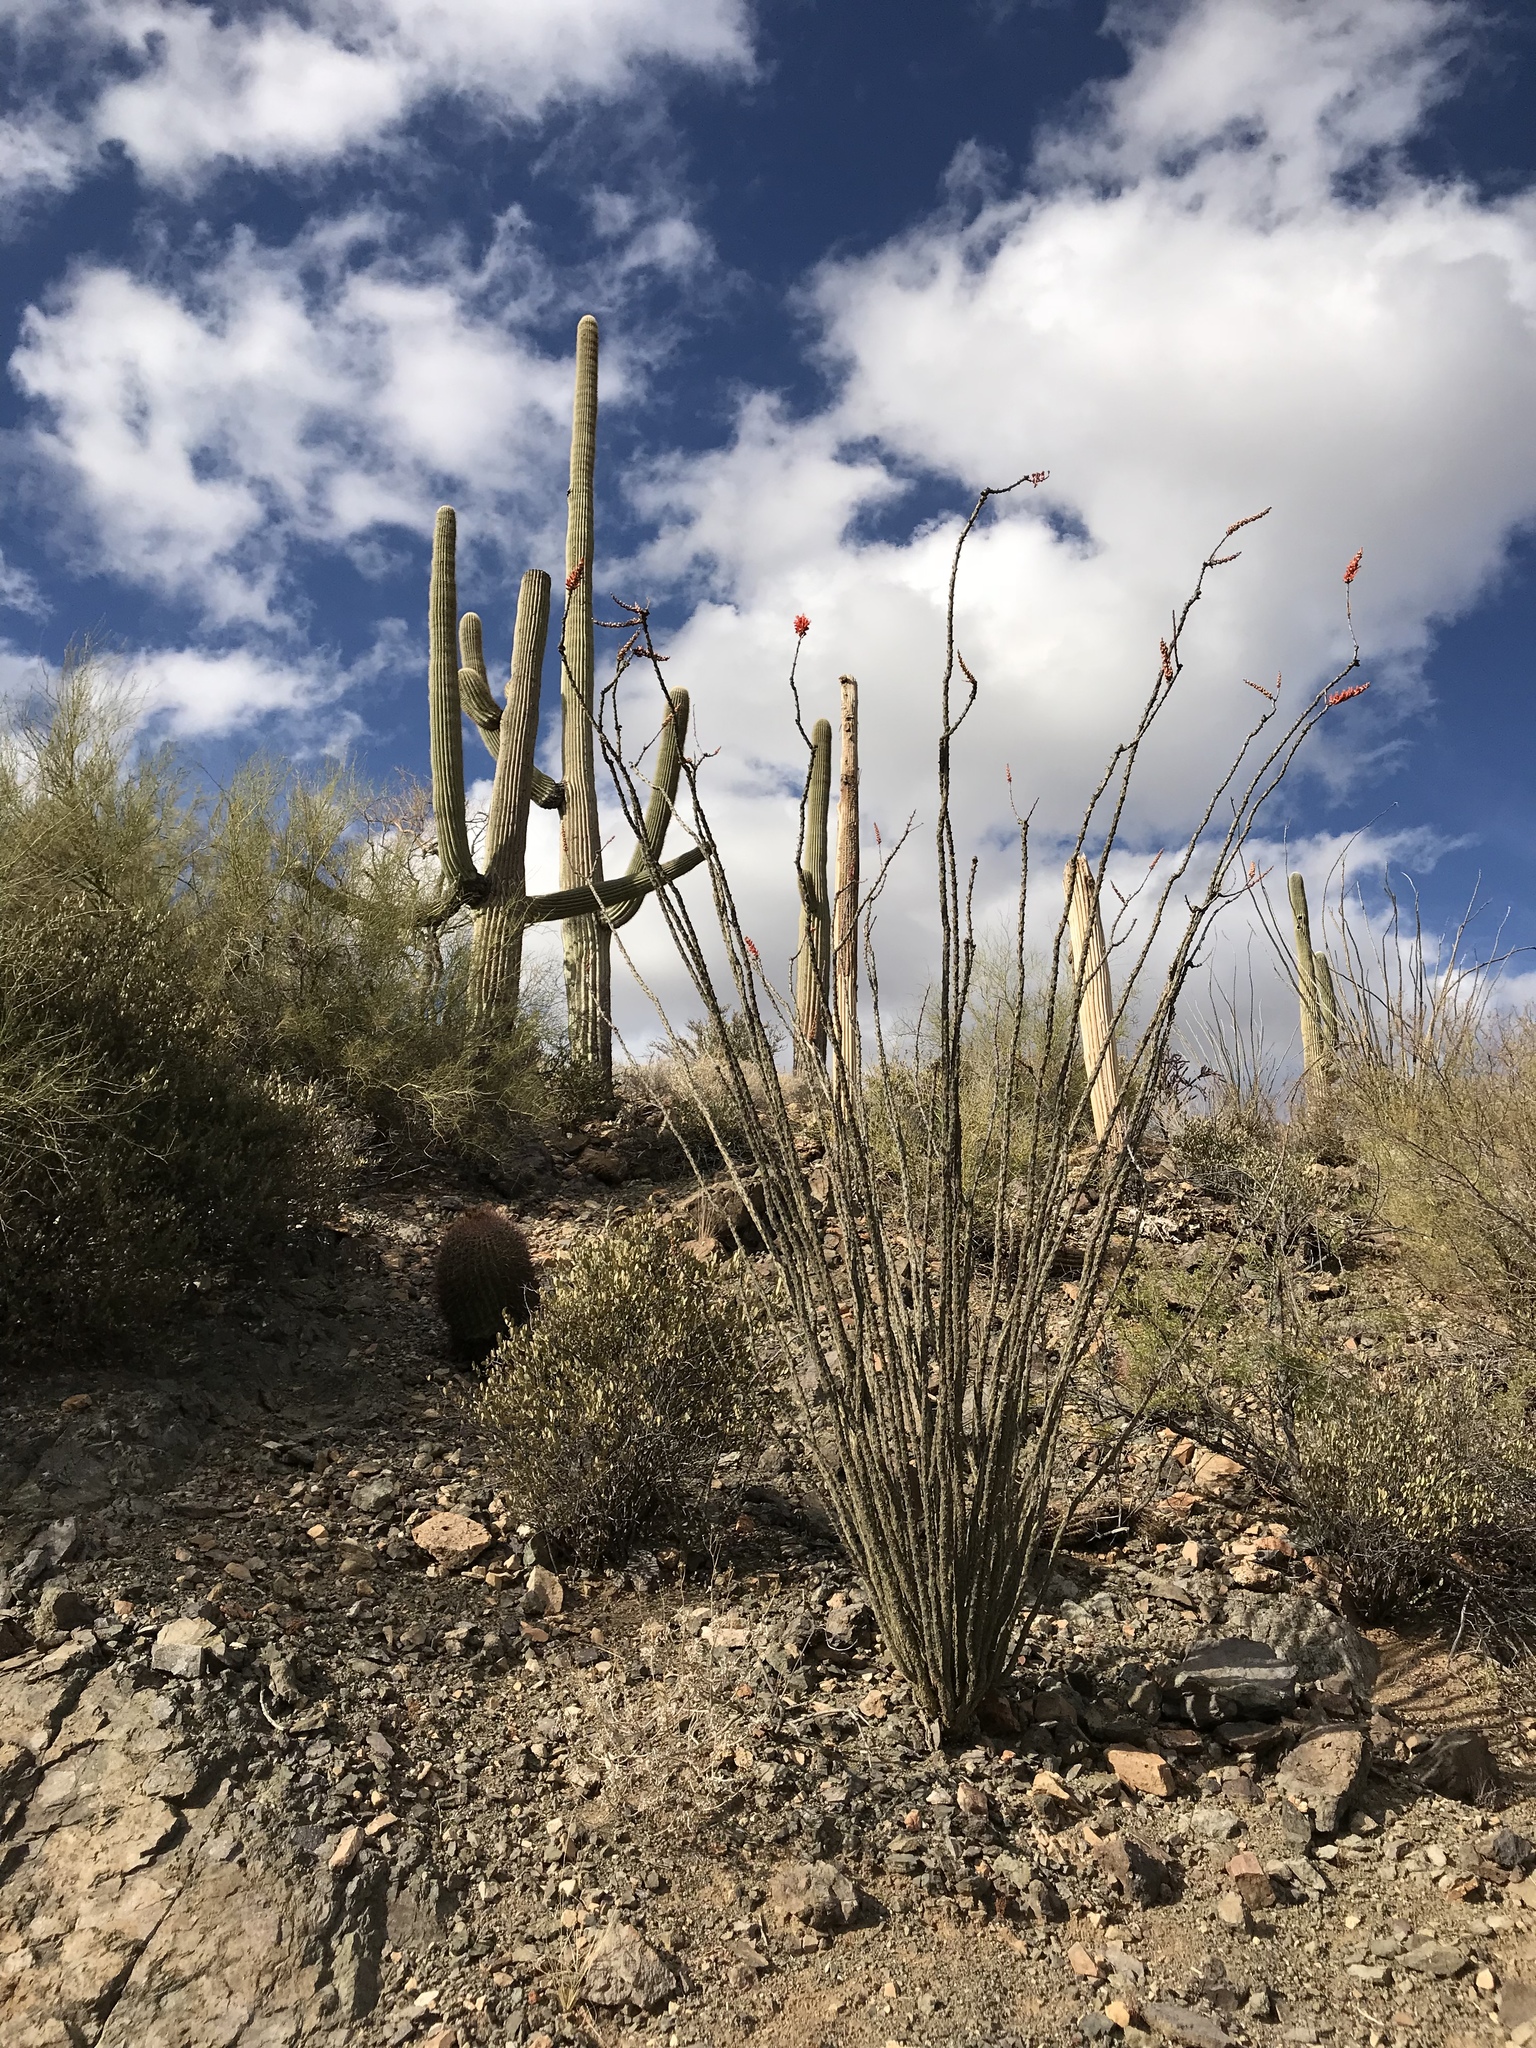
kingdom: Plantae
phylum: Tracheophyta
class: Magnoliopsida
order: Ericales
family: Fouquieriaceae
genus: Fouquieria
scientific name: Fouquieria splendens
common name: Vine-cactus
